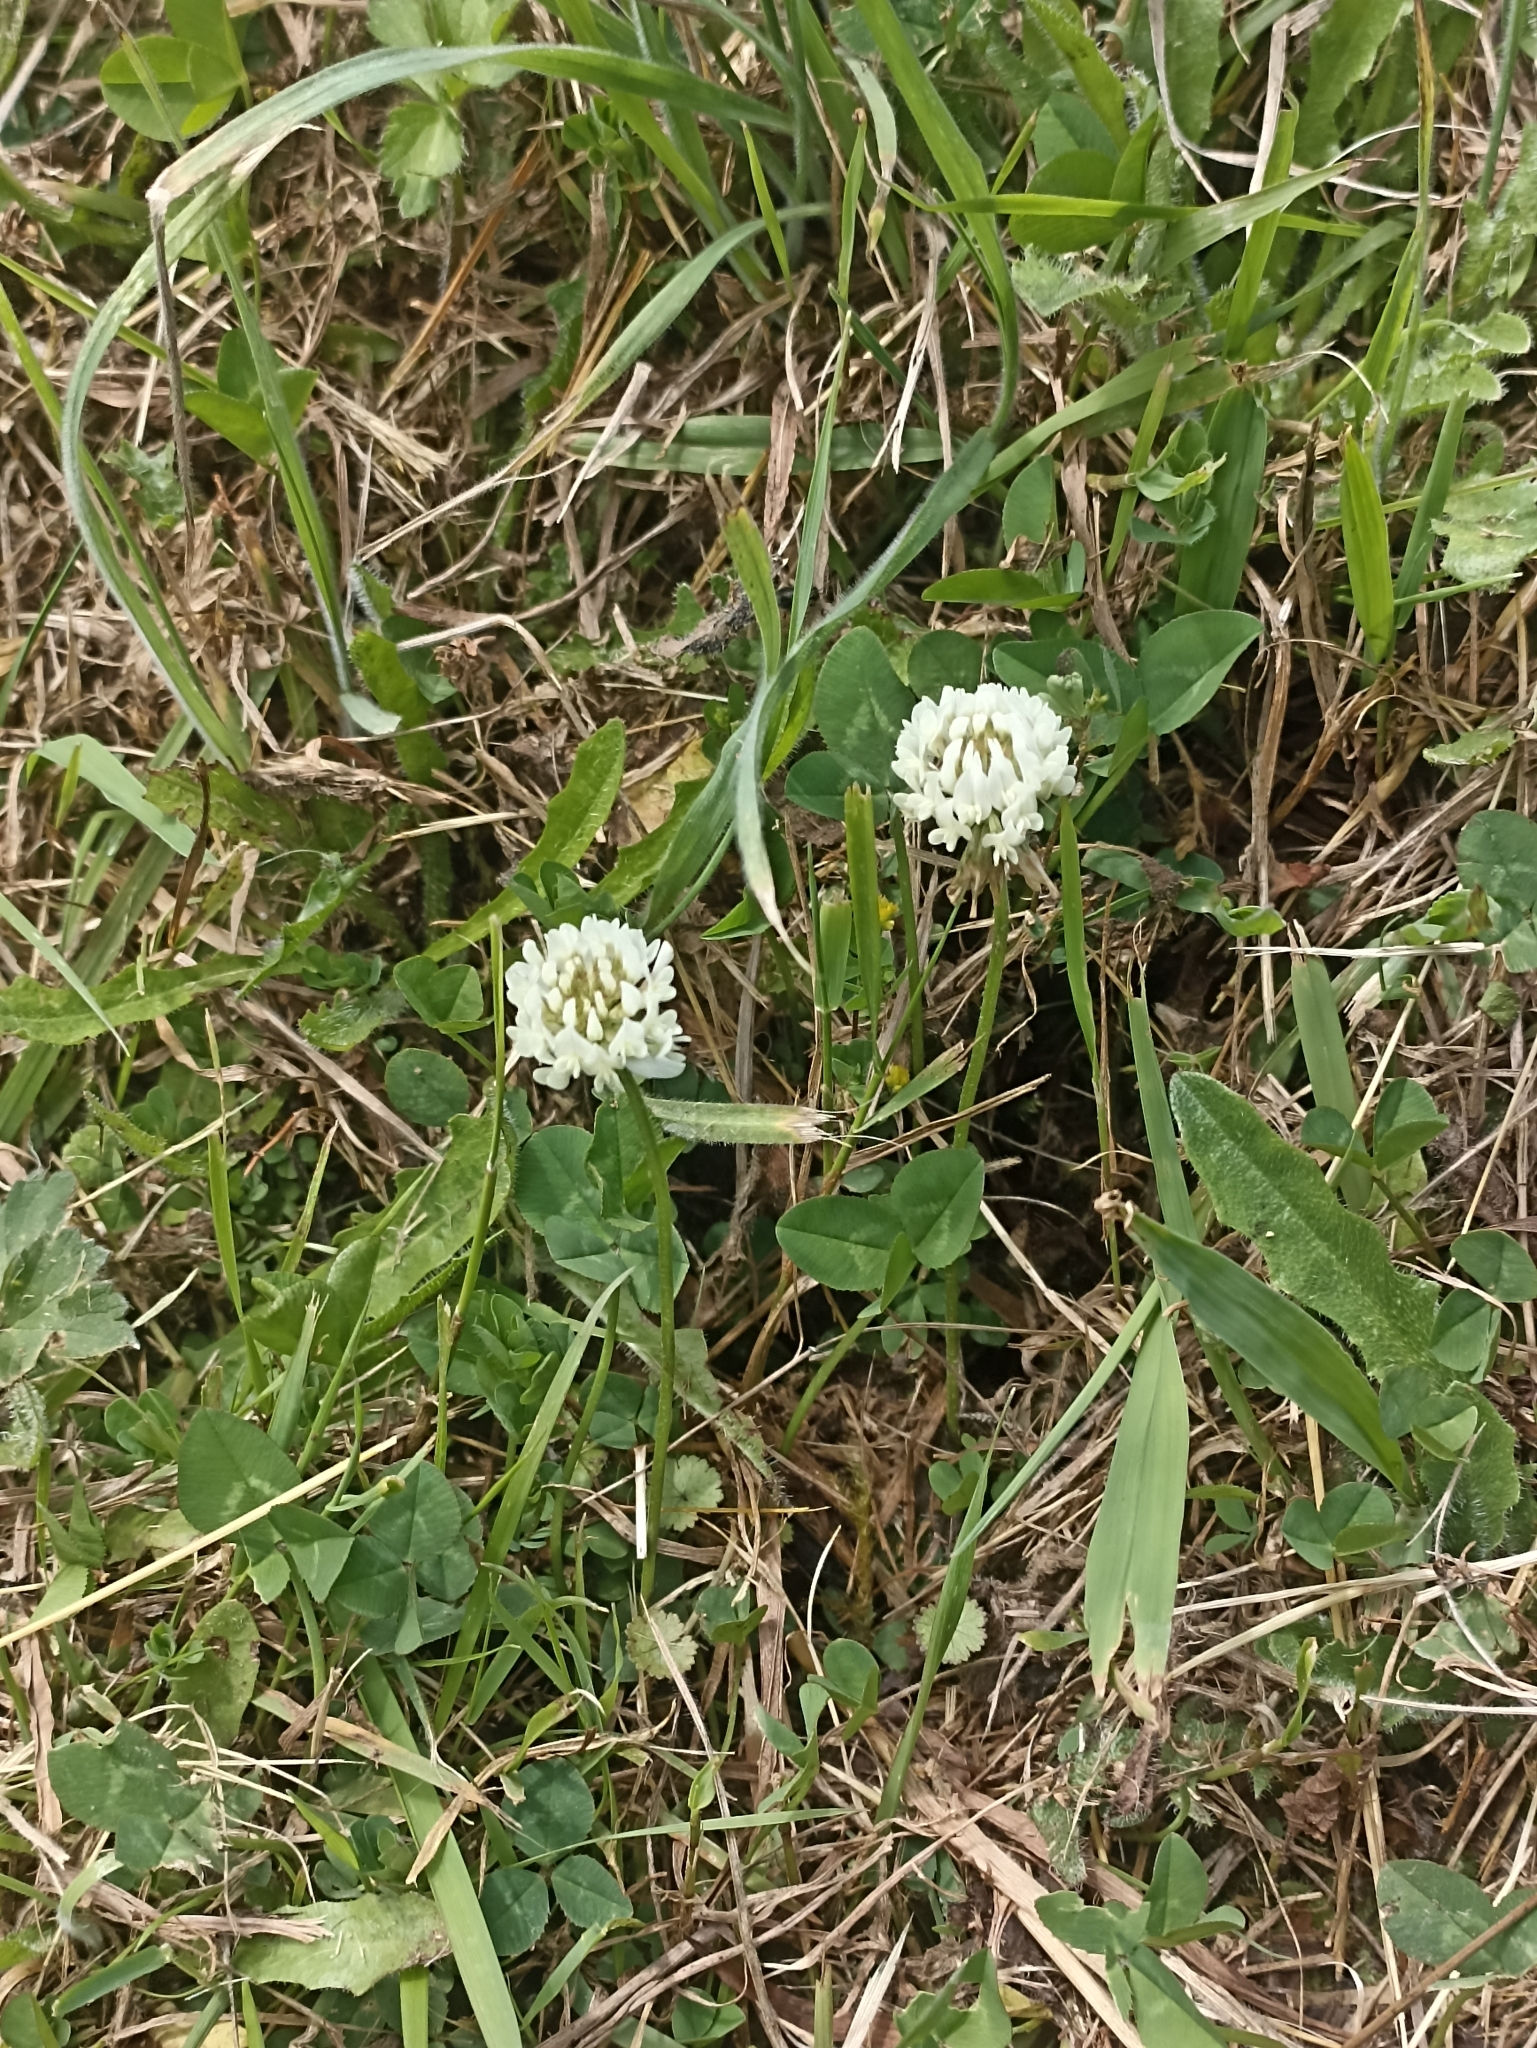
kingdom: Plantae
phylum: Tracheophyta
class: Magnoliopsida
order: Fabales
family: Fabaceae
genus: Trifolium
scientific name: Trifolium repens
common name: White clover
